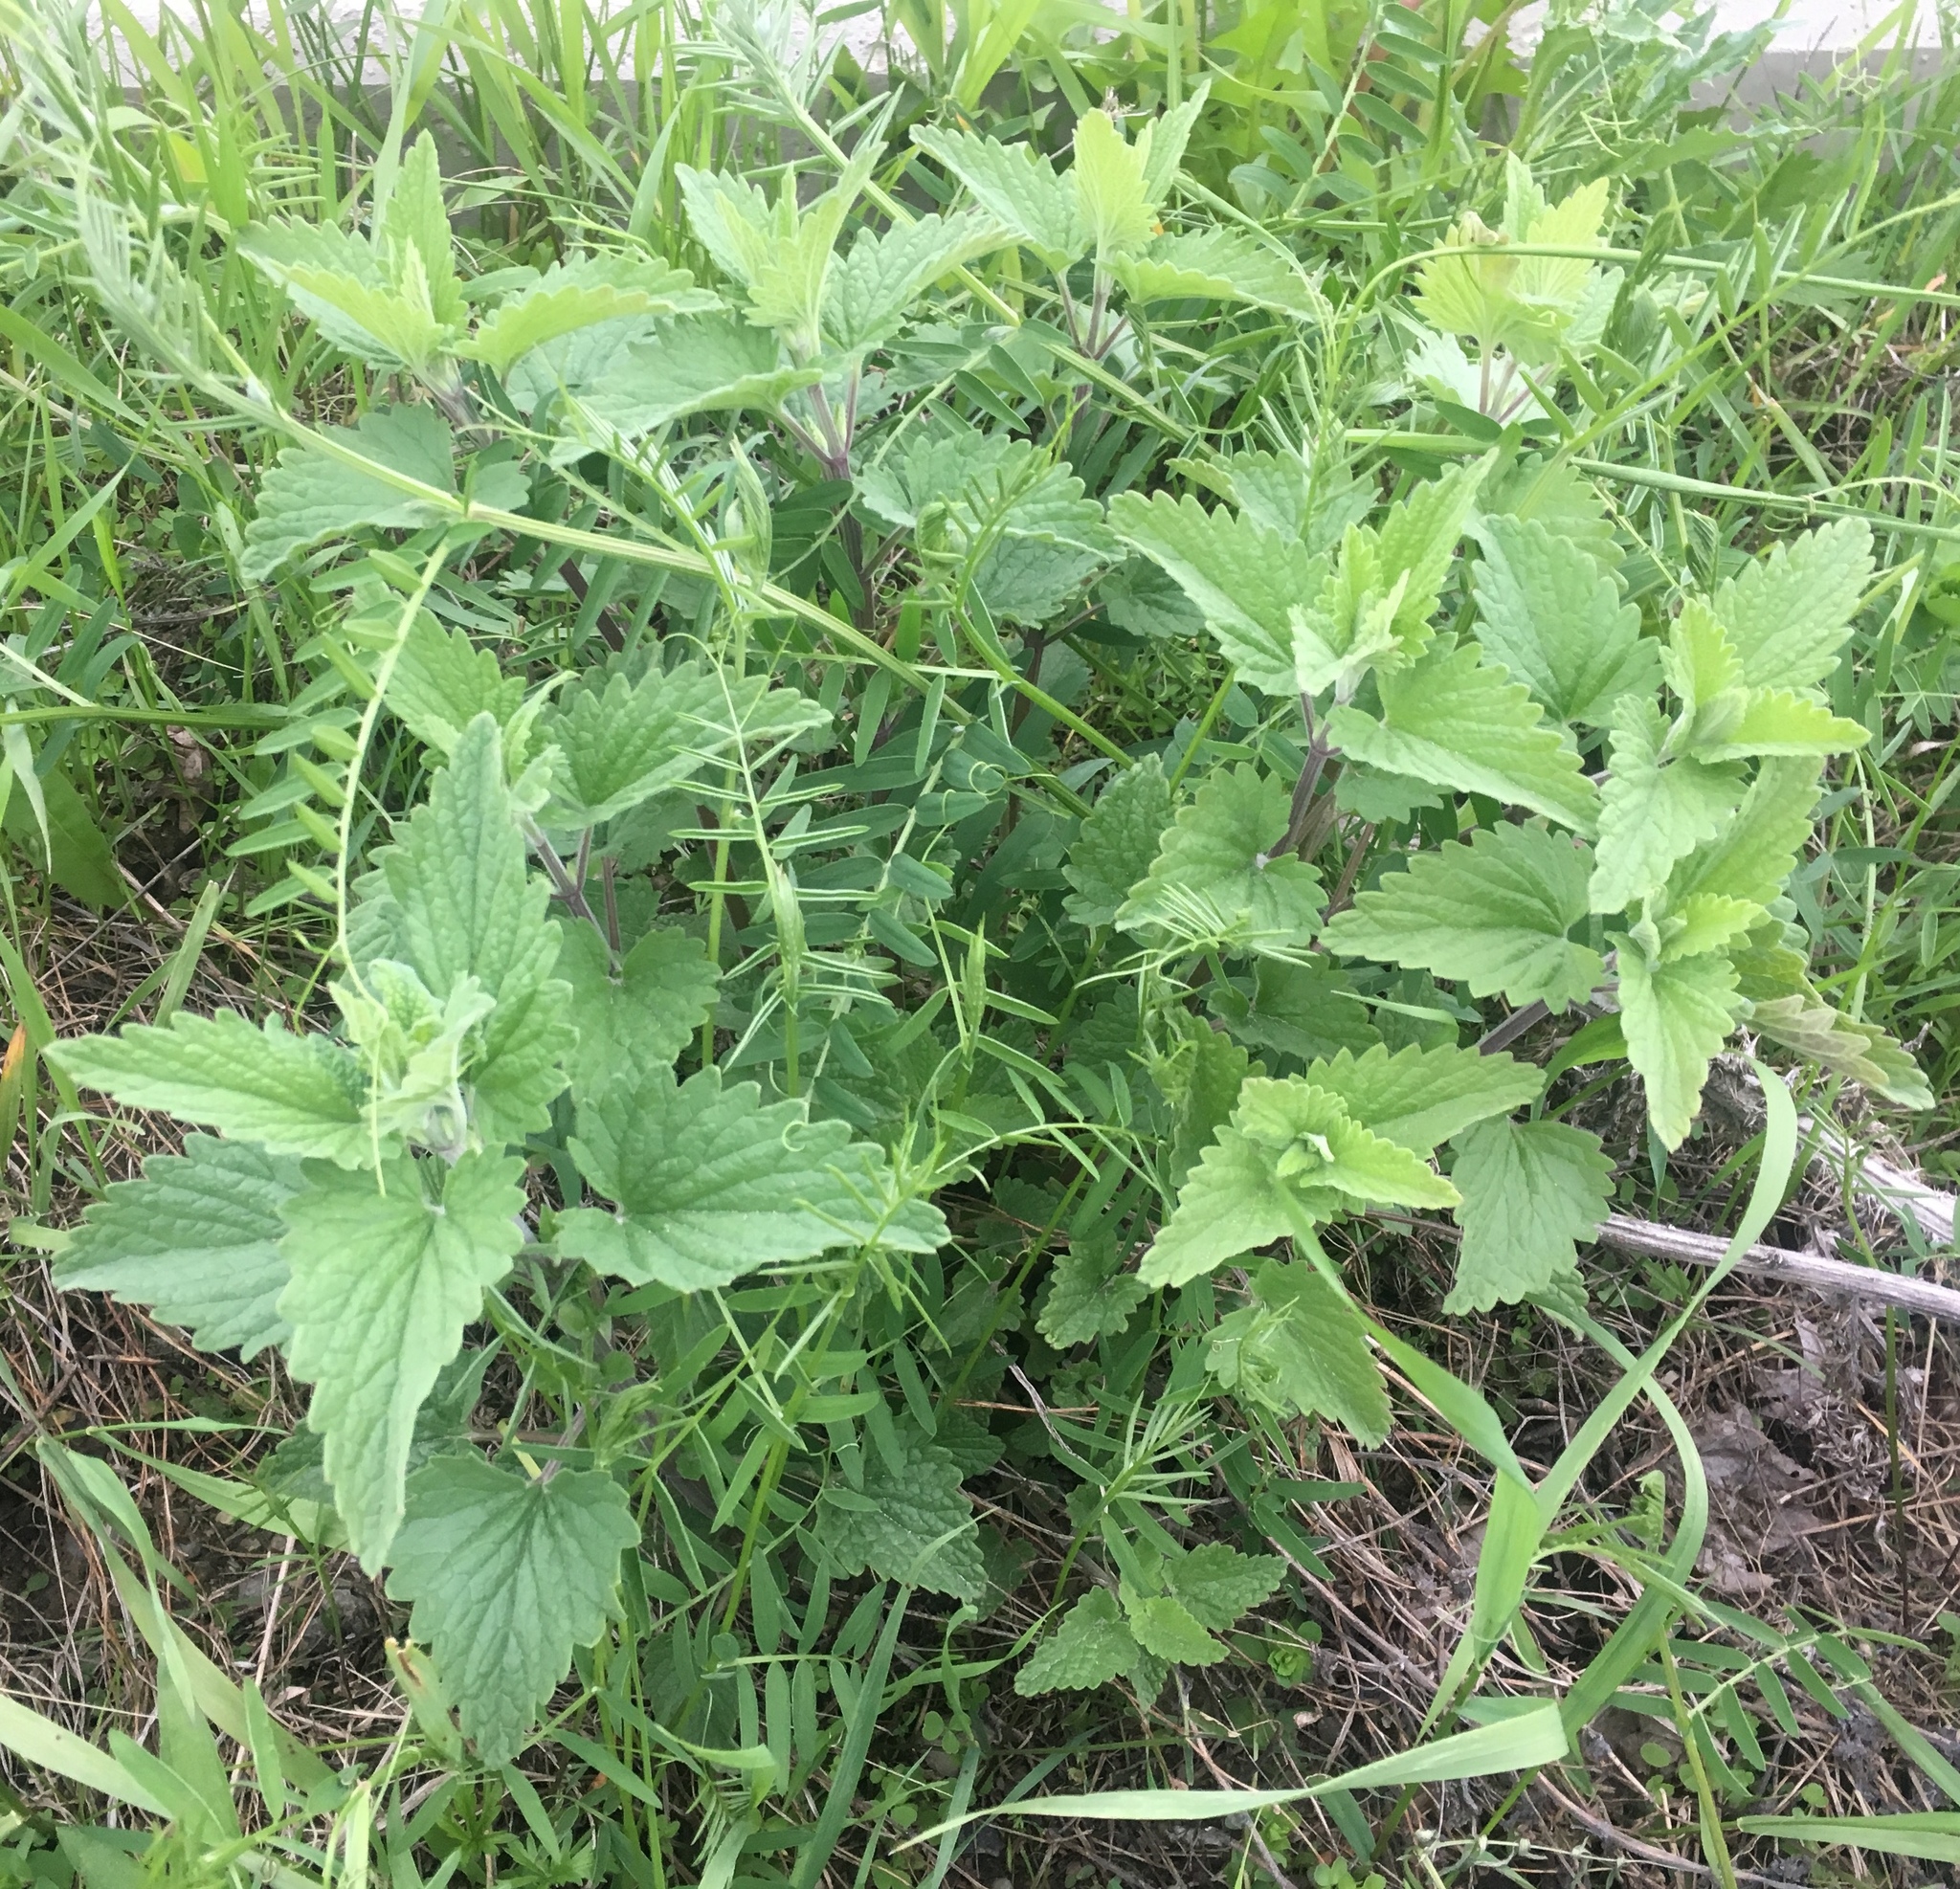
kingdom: Plantae
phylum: Tracheophyta
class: Magnoliopsida
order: Lamiales
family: Lamiaceae
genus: Nepeta
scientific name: Nepeta cataria
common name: Catnip
